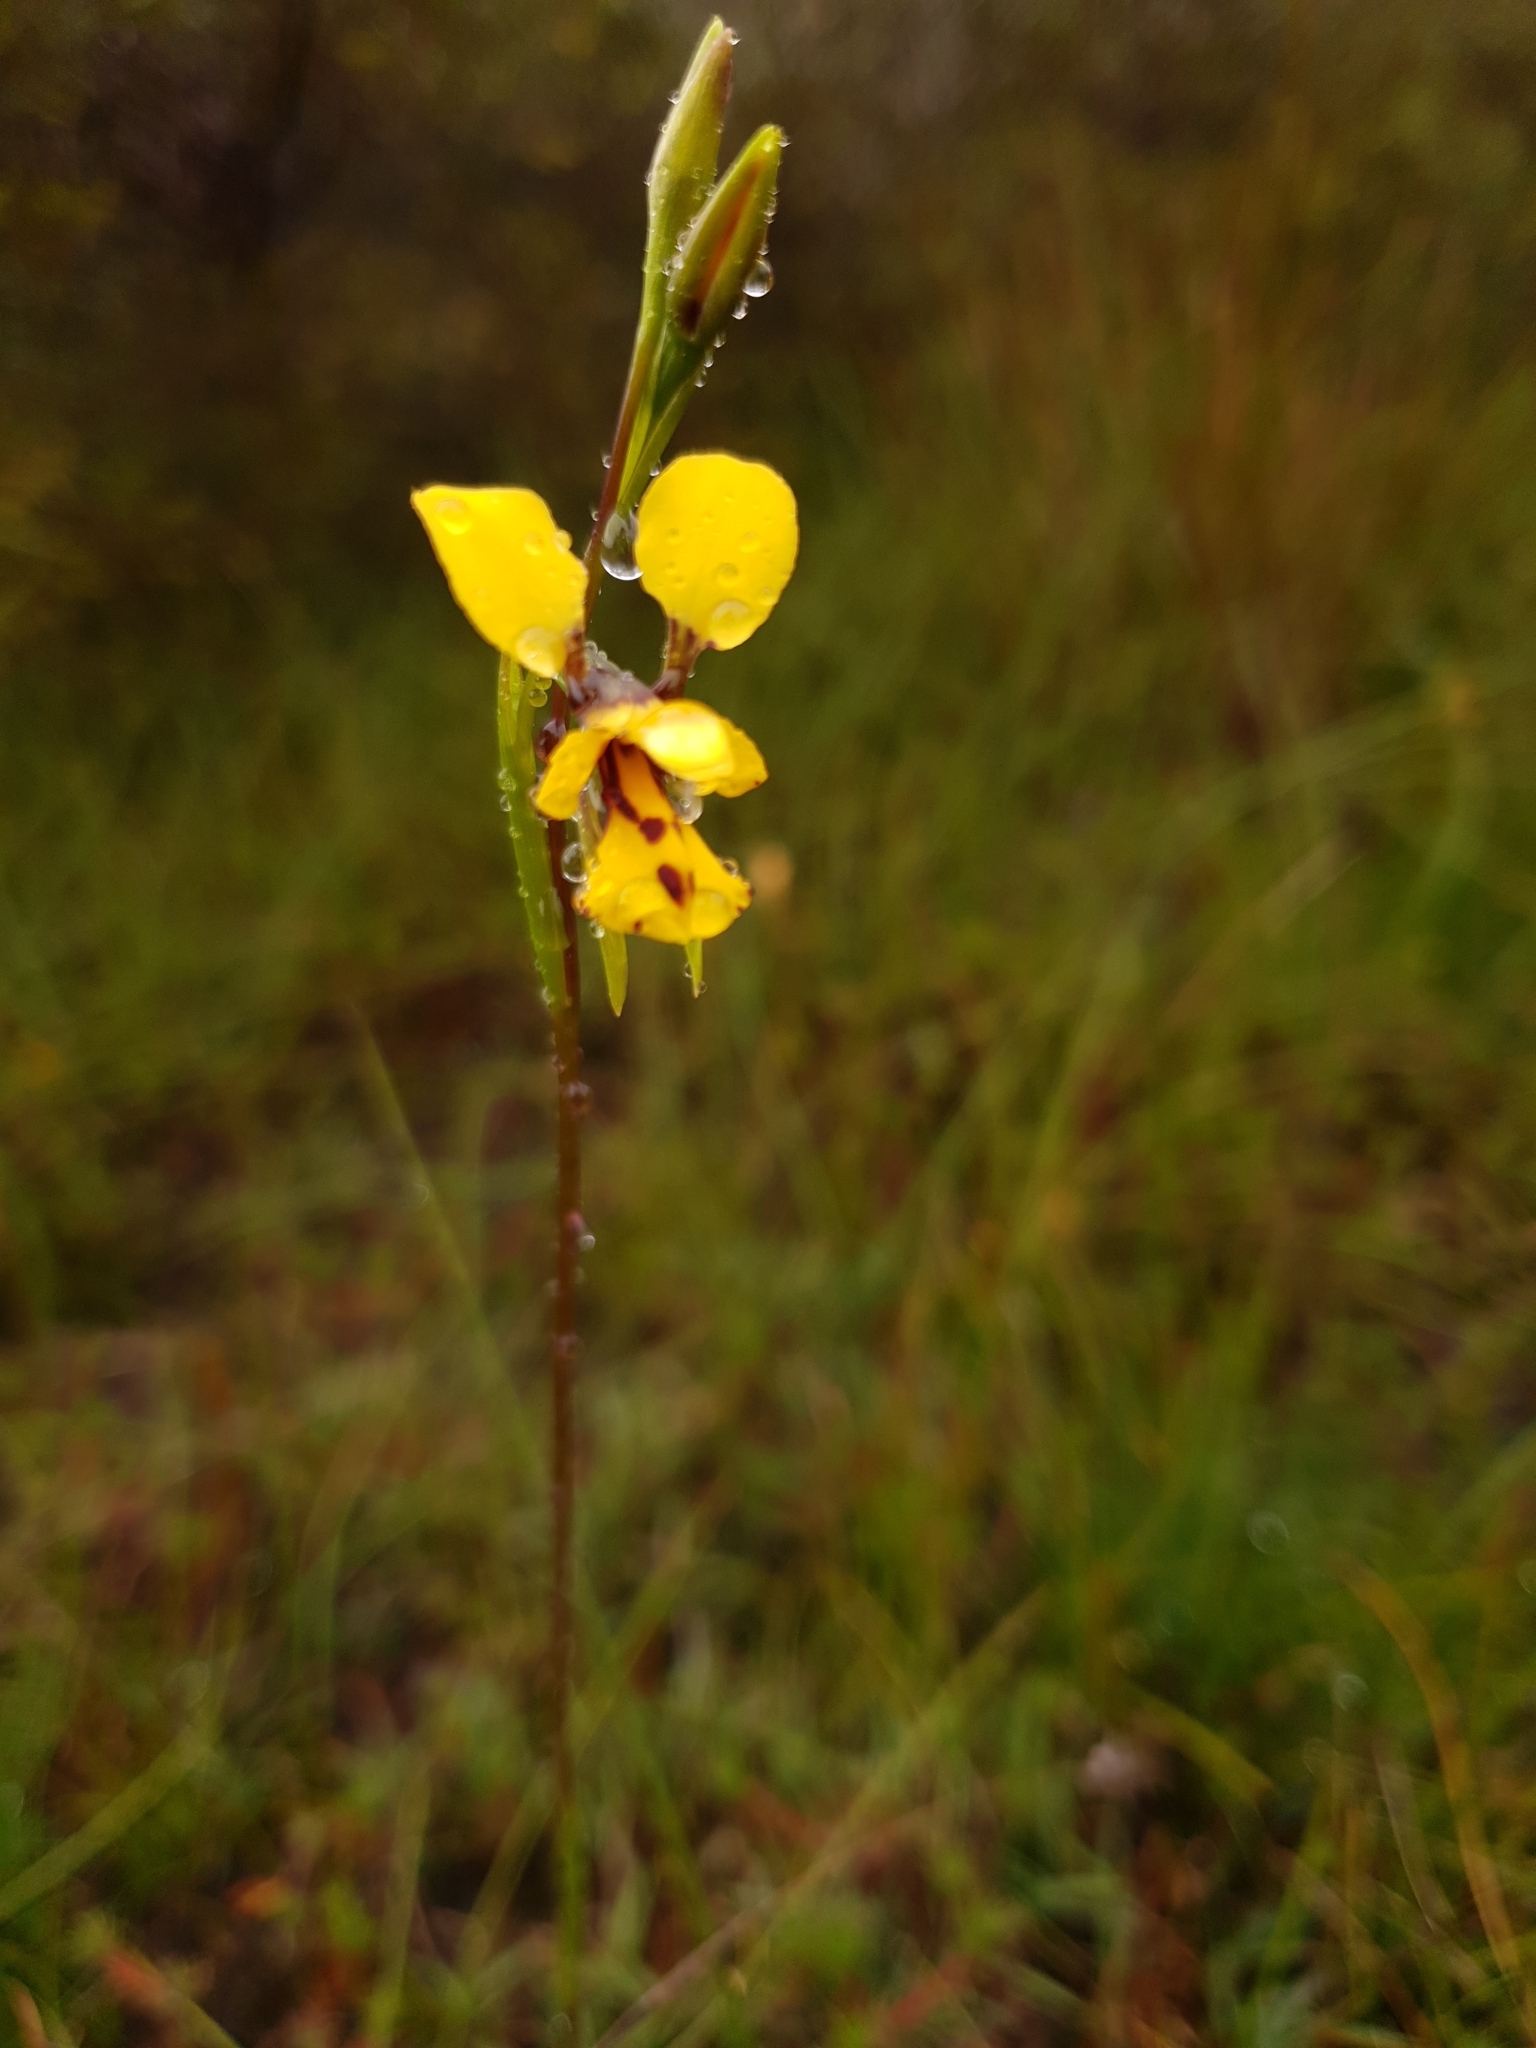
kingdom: Plantae
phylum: Tracheophyta
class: Liliopsida
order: Asparagales
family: Orchidaceae
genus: Diuris
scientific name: Diuris laxiflora
